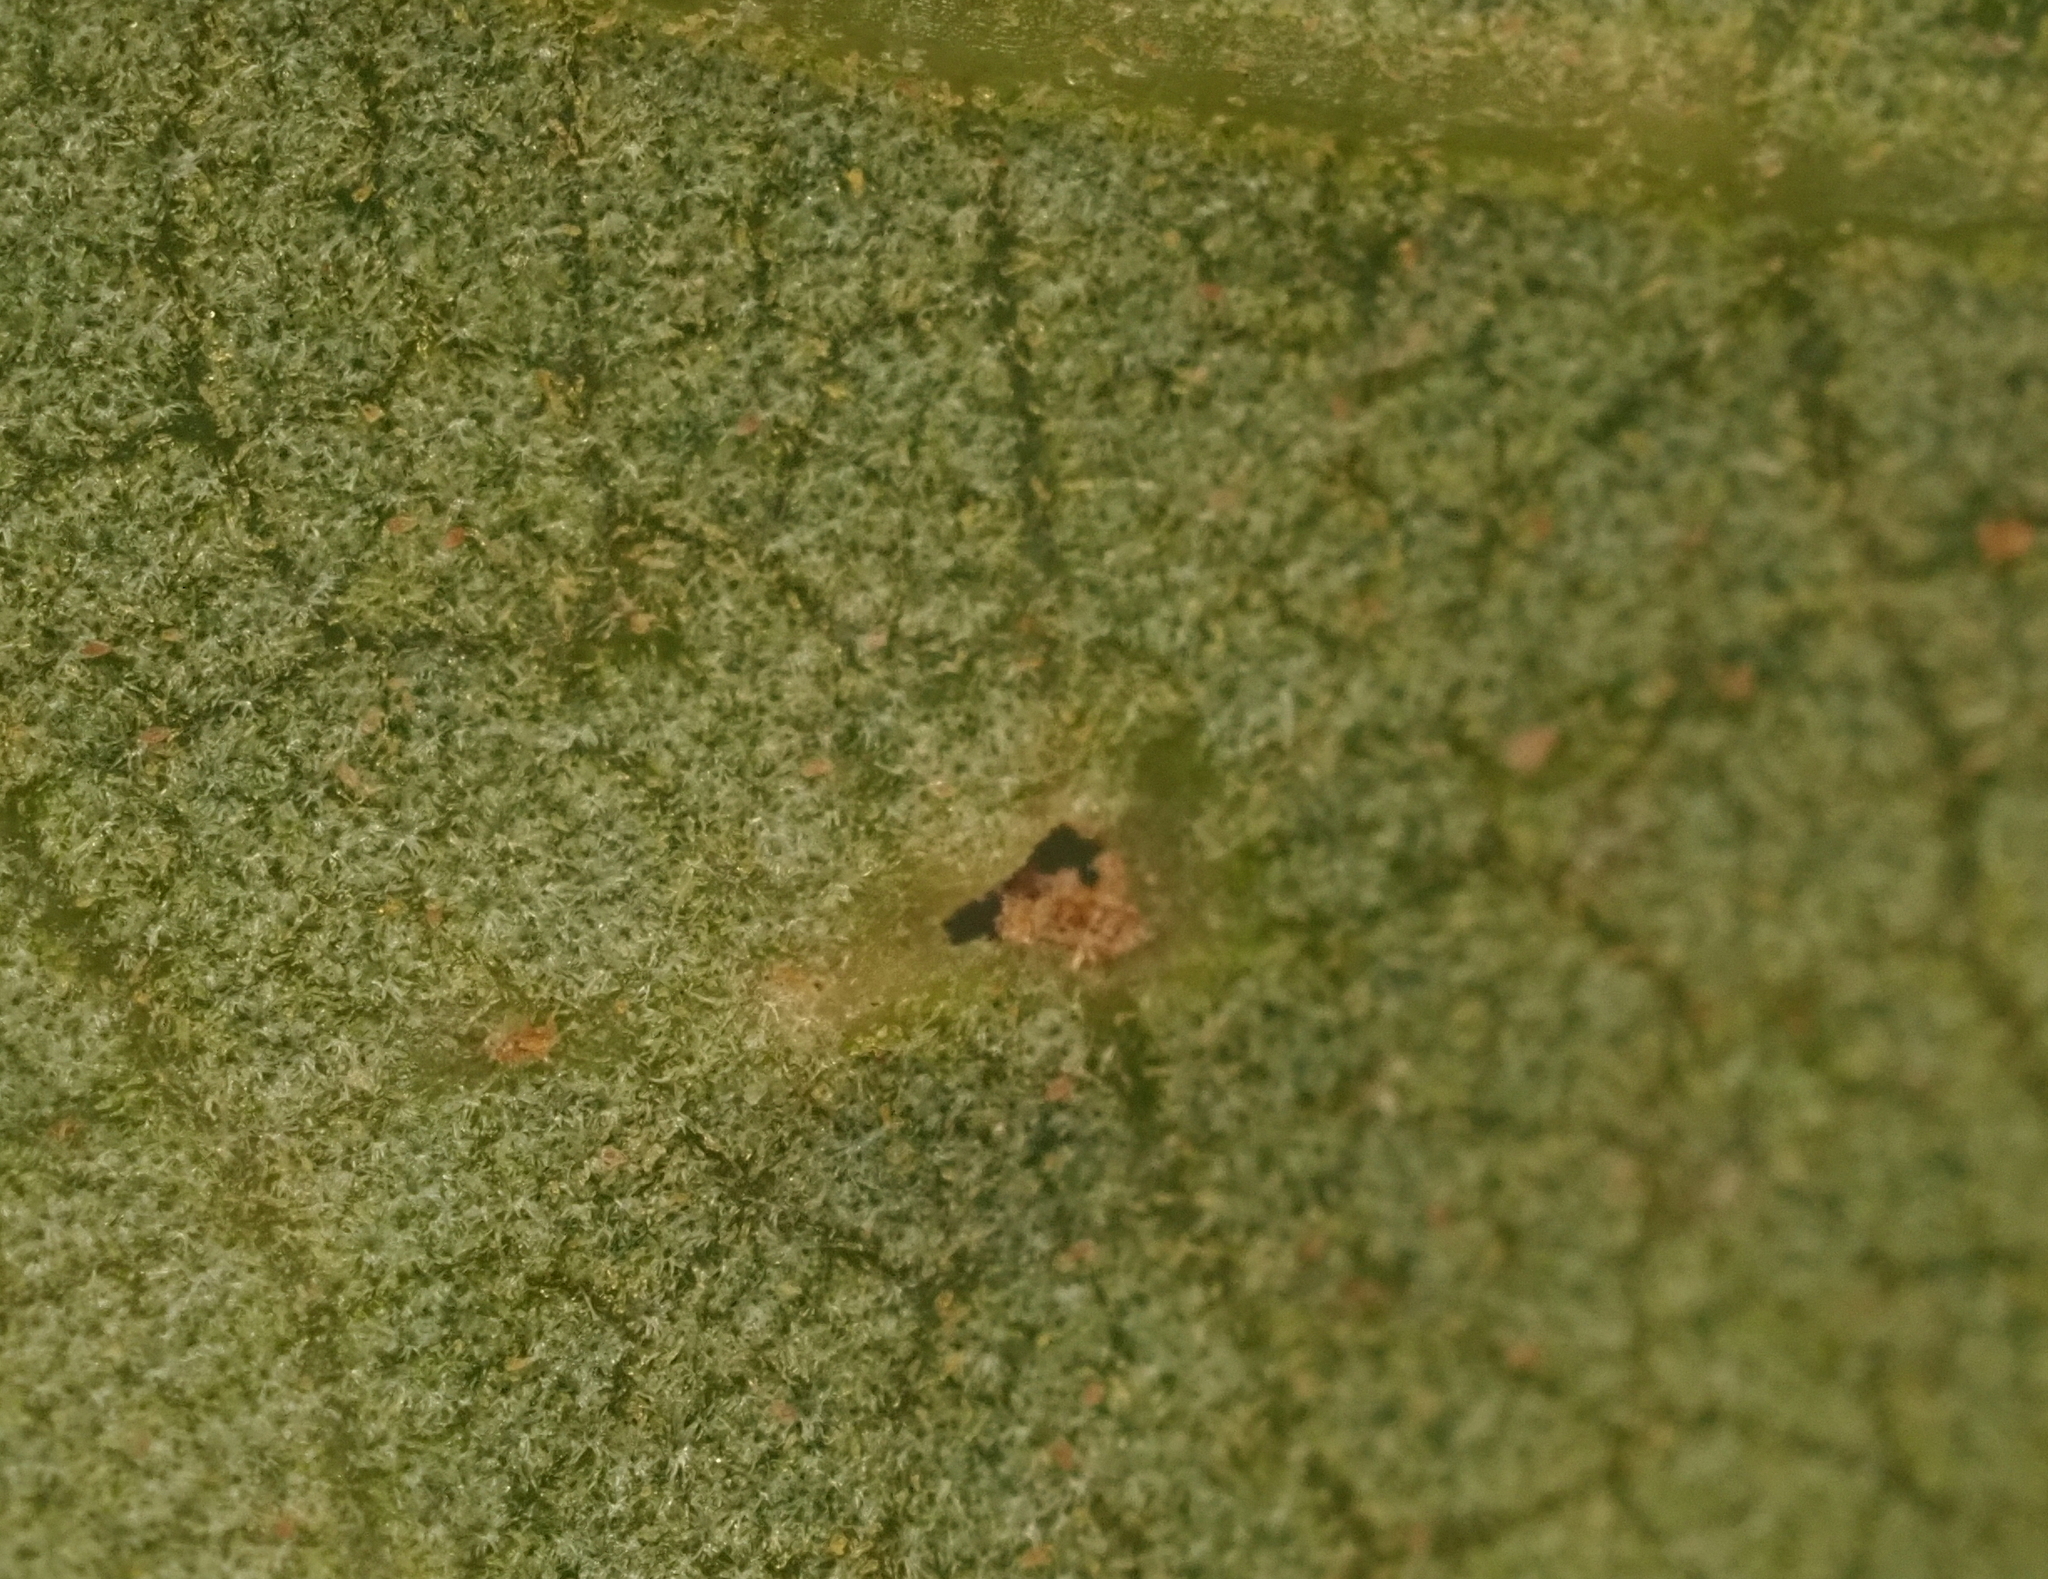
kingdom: Animalia
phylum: Arthropoda
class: Insecta
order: Hymenoptera
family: Cynipidae
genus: Belonocnema
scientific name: Belonocnema kinseyi
